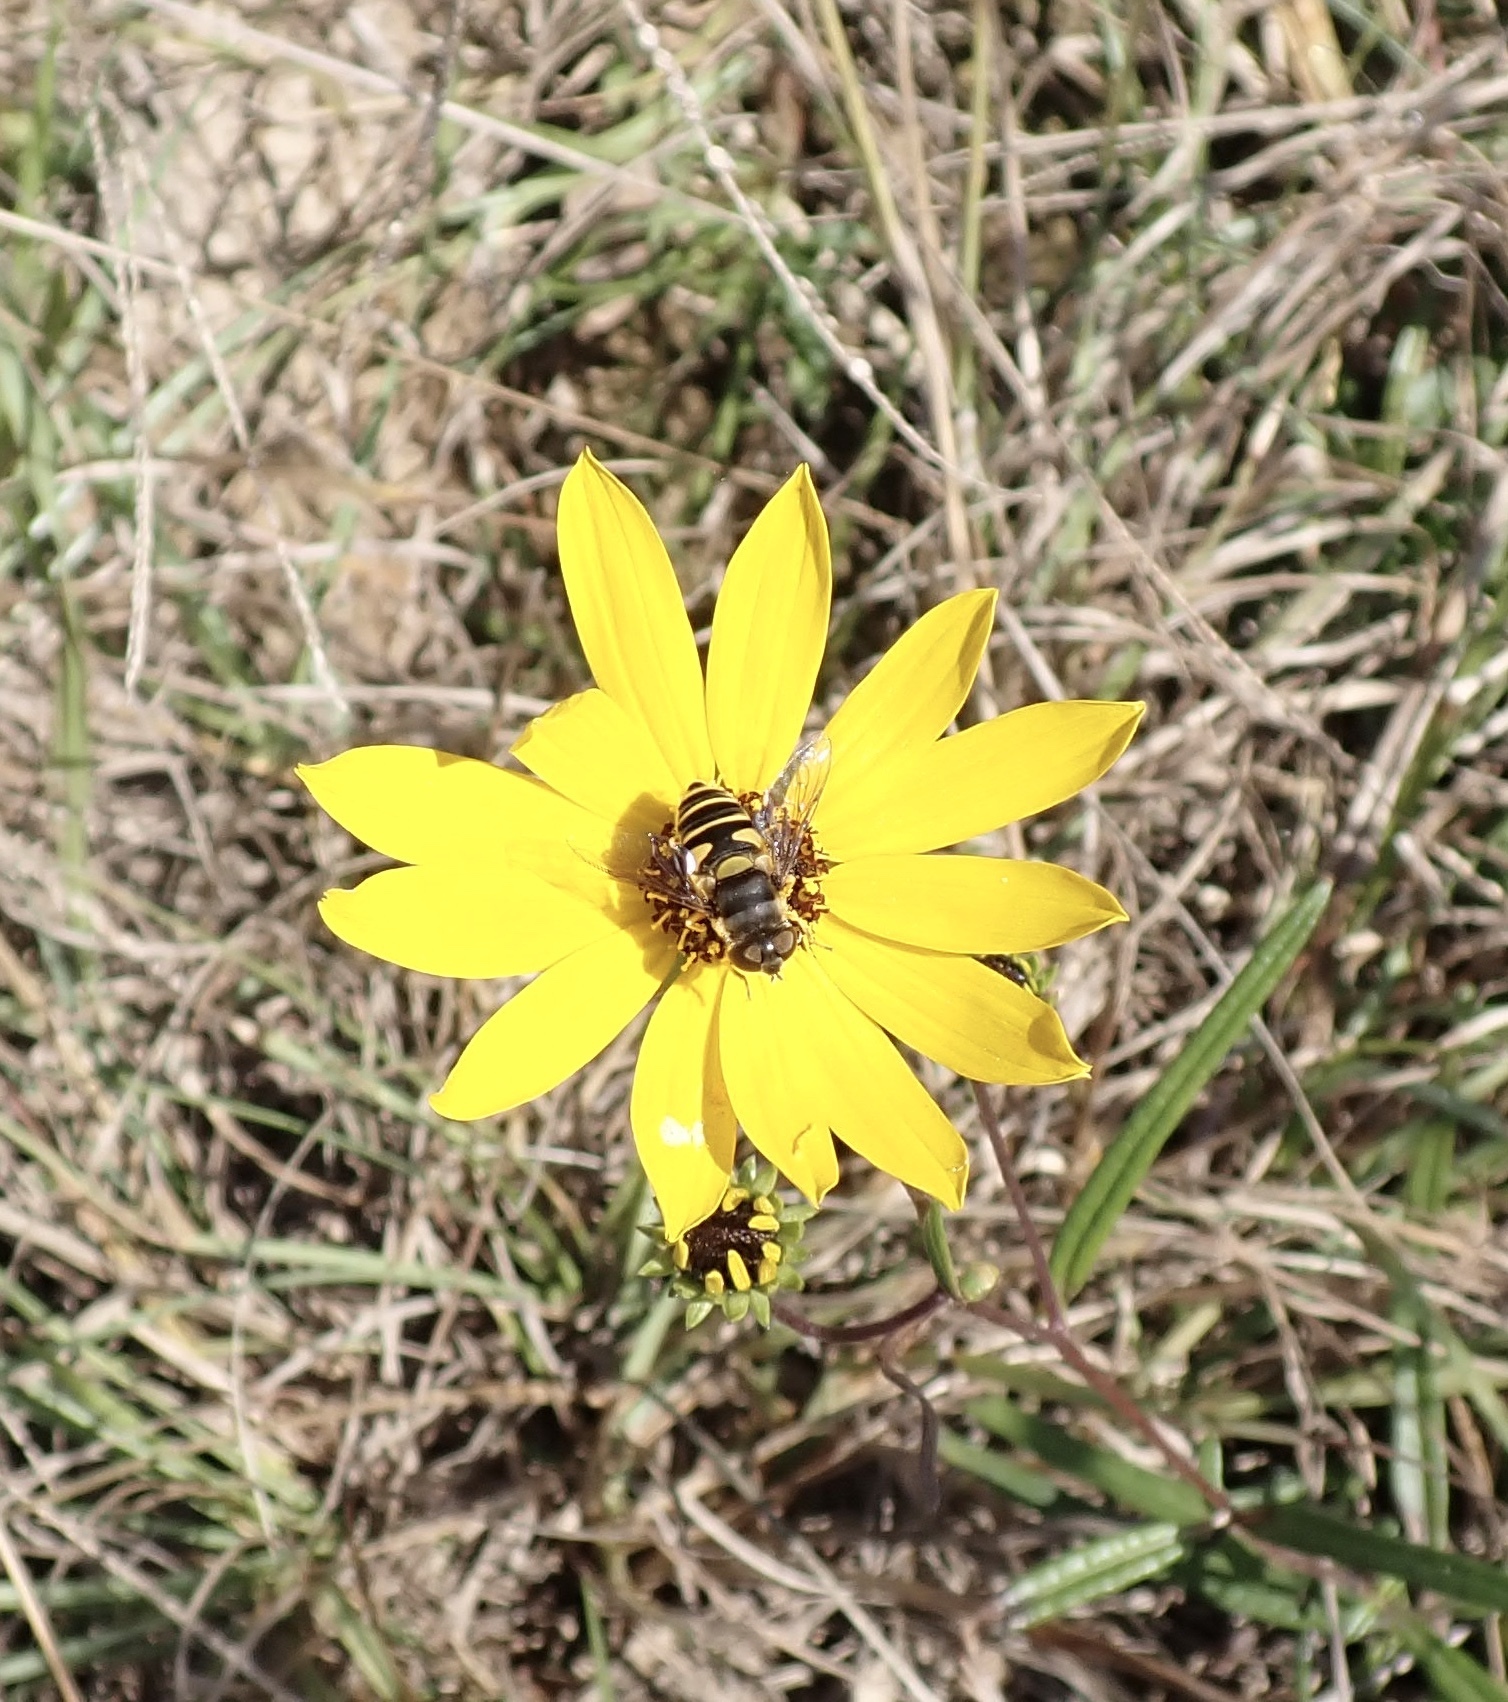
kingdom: Animalia
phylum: Arthropoda
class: Insecta
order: Diptera
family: Syrphidae
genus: Eristalis
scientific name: Eristalis transversa
